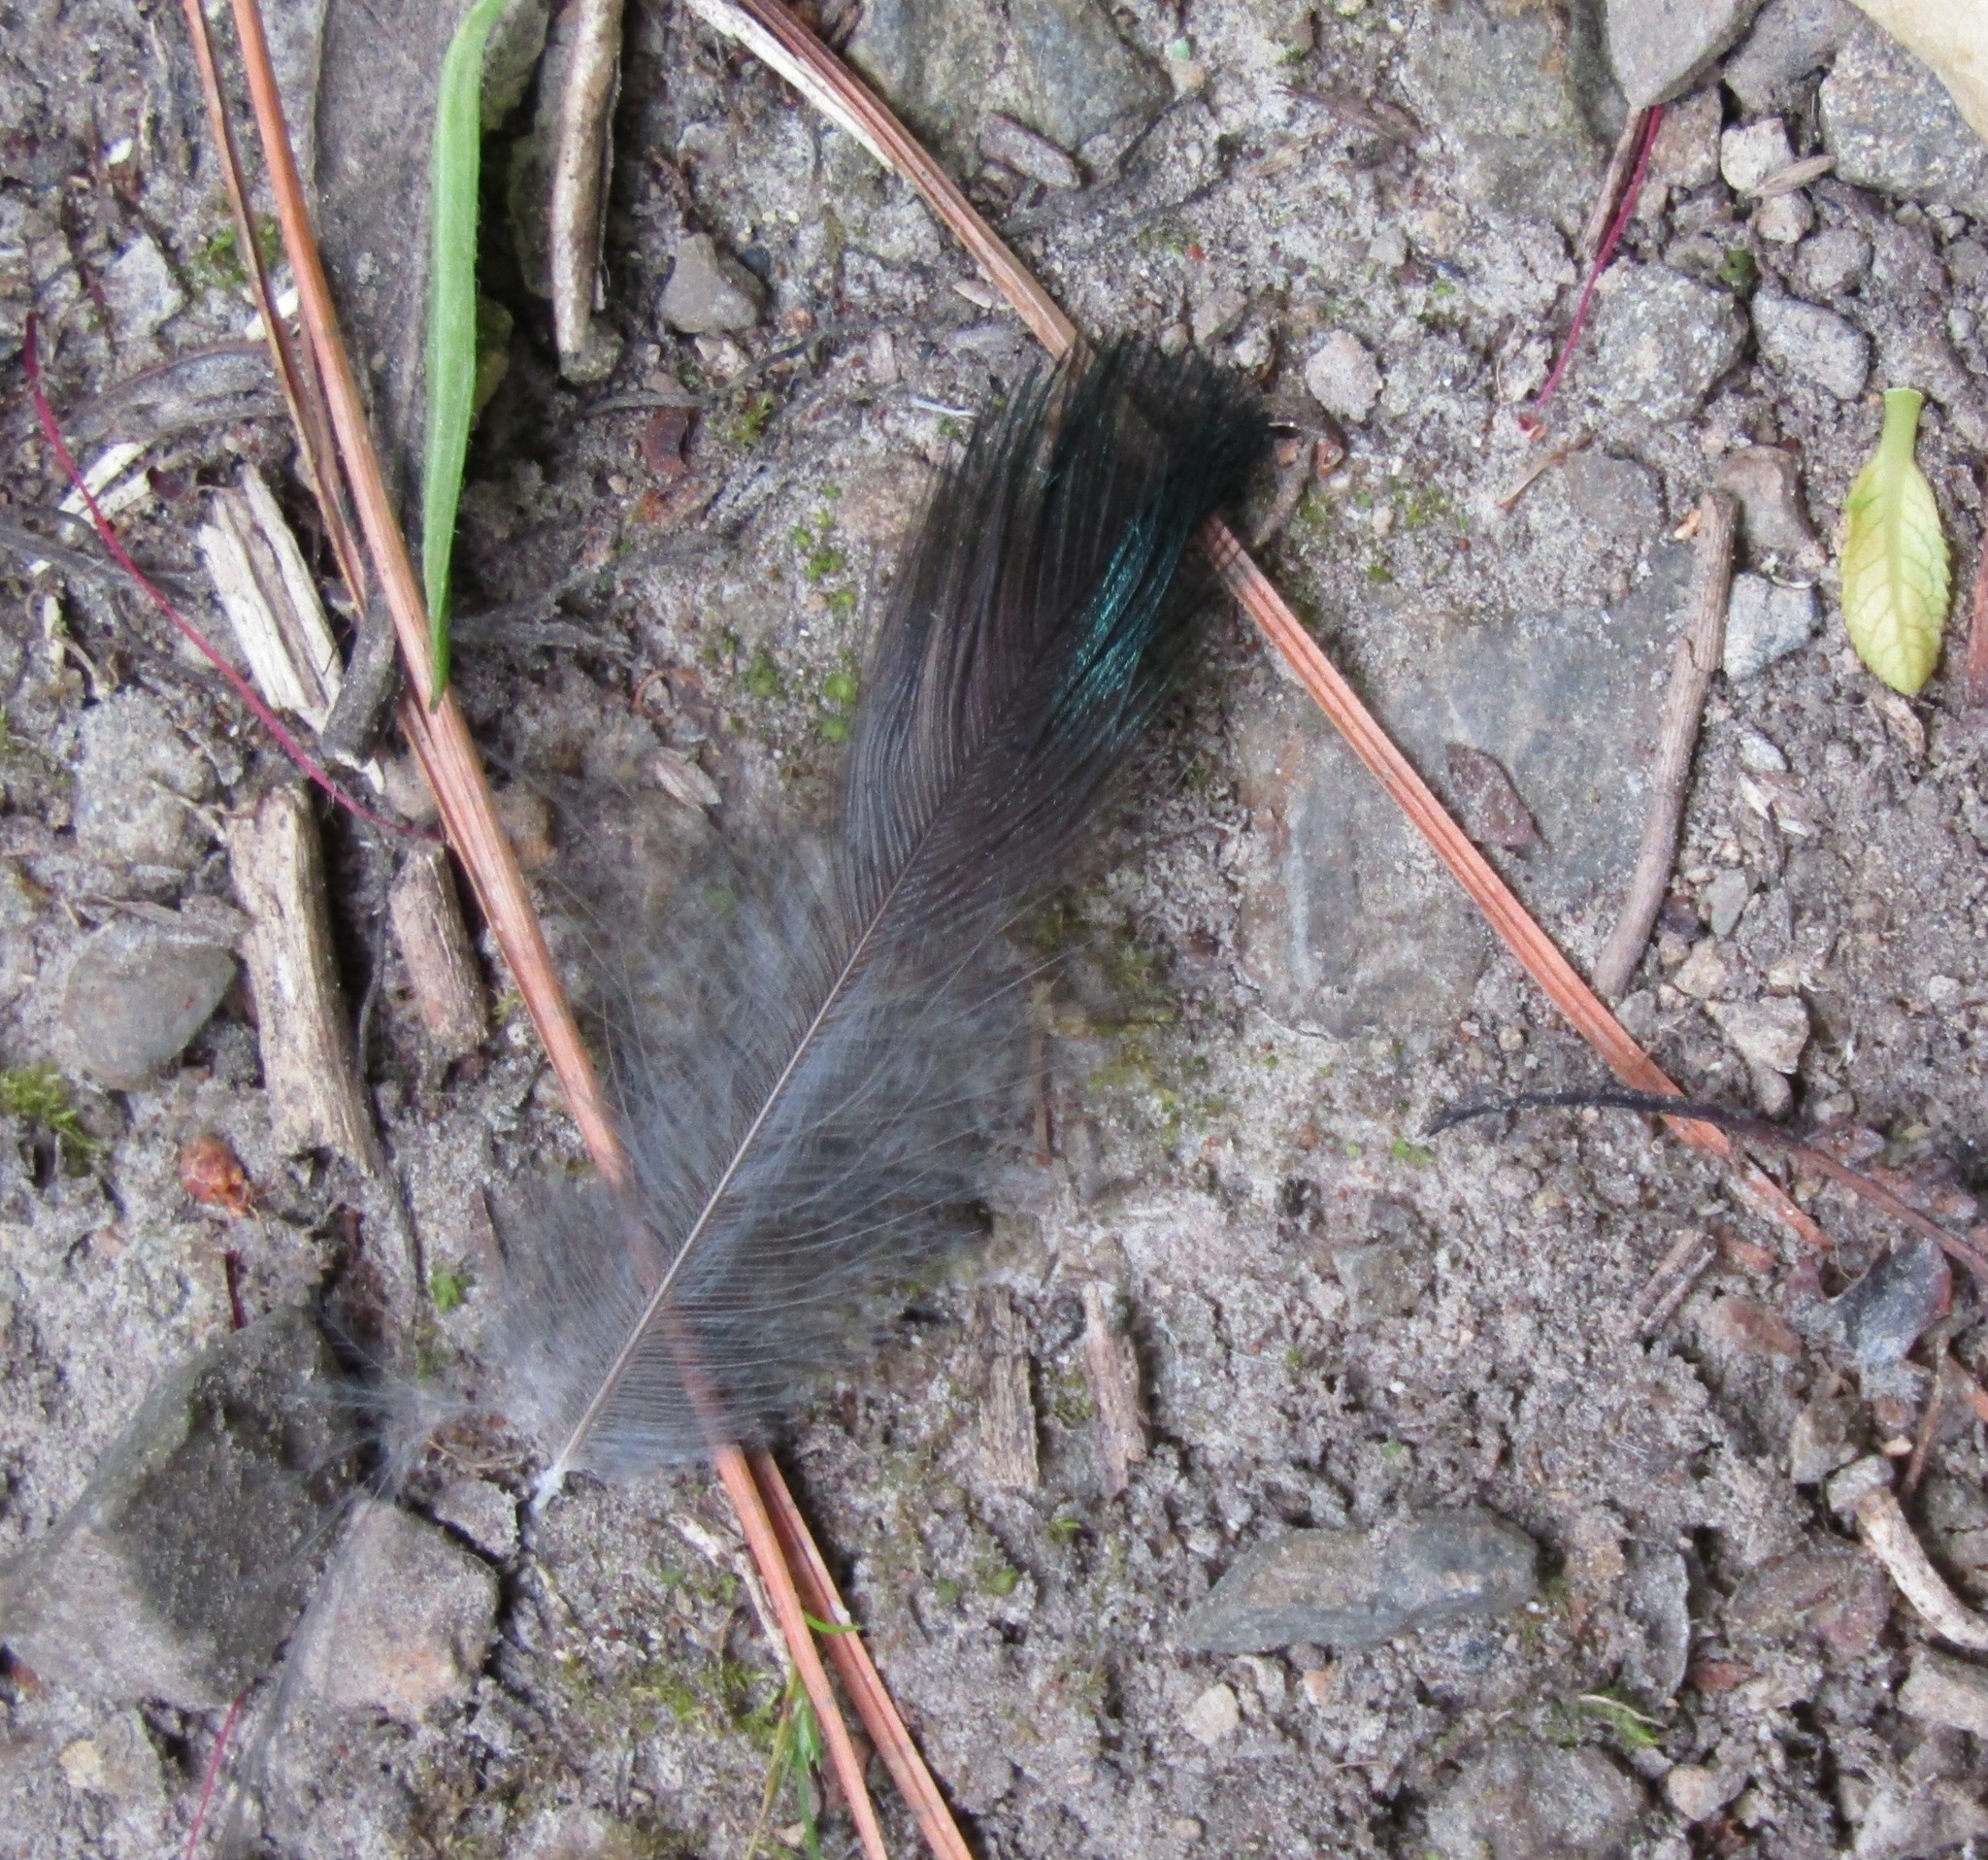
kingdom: Animalia
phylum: Chordata
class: Aves
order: Passeriformes
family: Meliphagidae
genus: Prosthemadera
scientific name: Prosthemadera novaeseelandiae
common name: Tui
